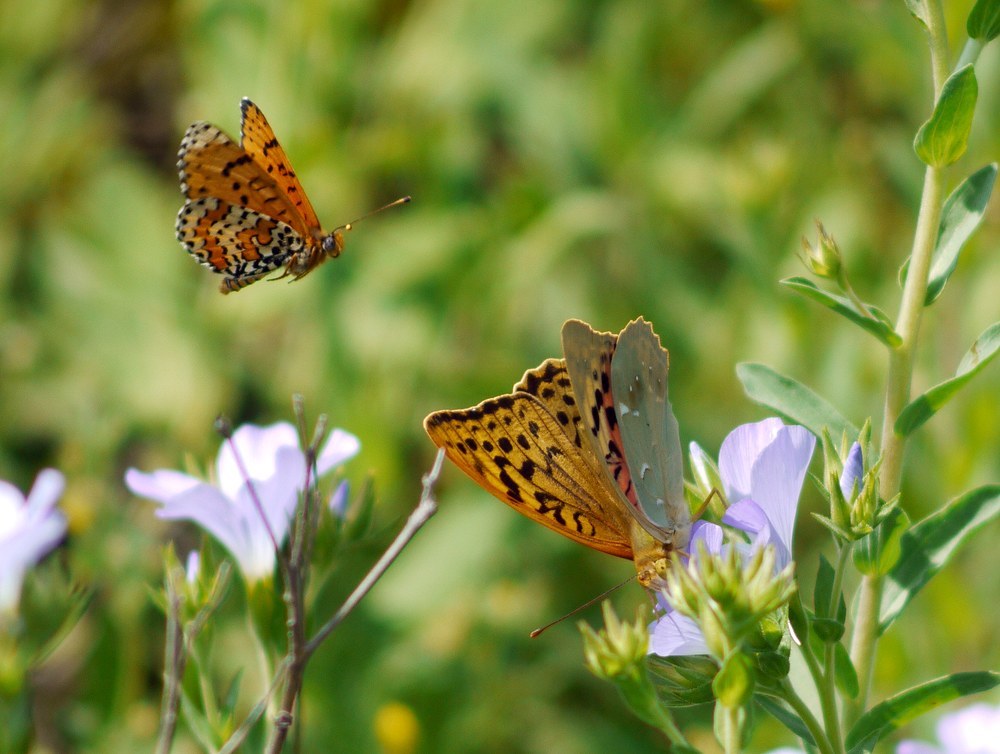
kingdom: Animalia
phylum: Arthropoda
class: Insecta
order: Lepidoptera
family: Nymphalidae
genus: Melitaea
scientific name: Melitaea didyma
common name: Spotted fritillary
